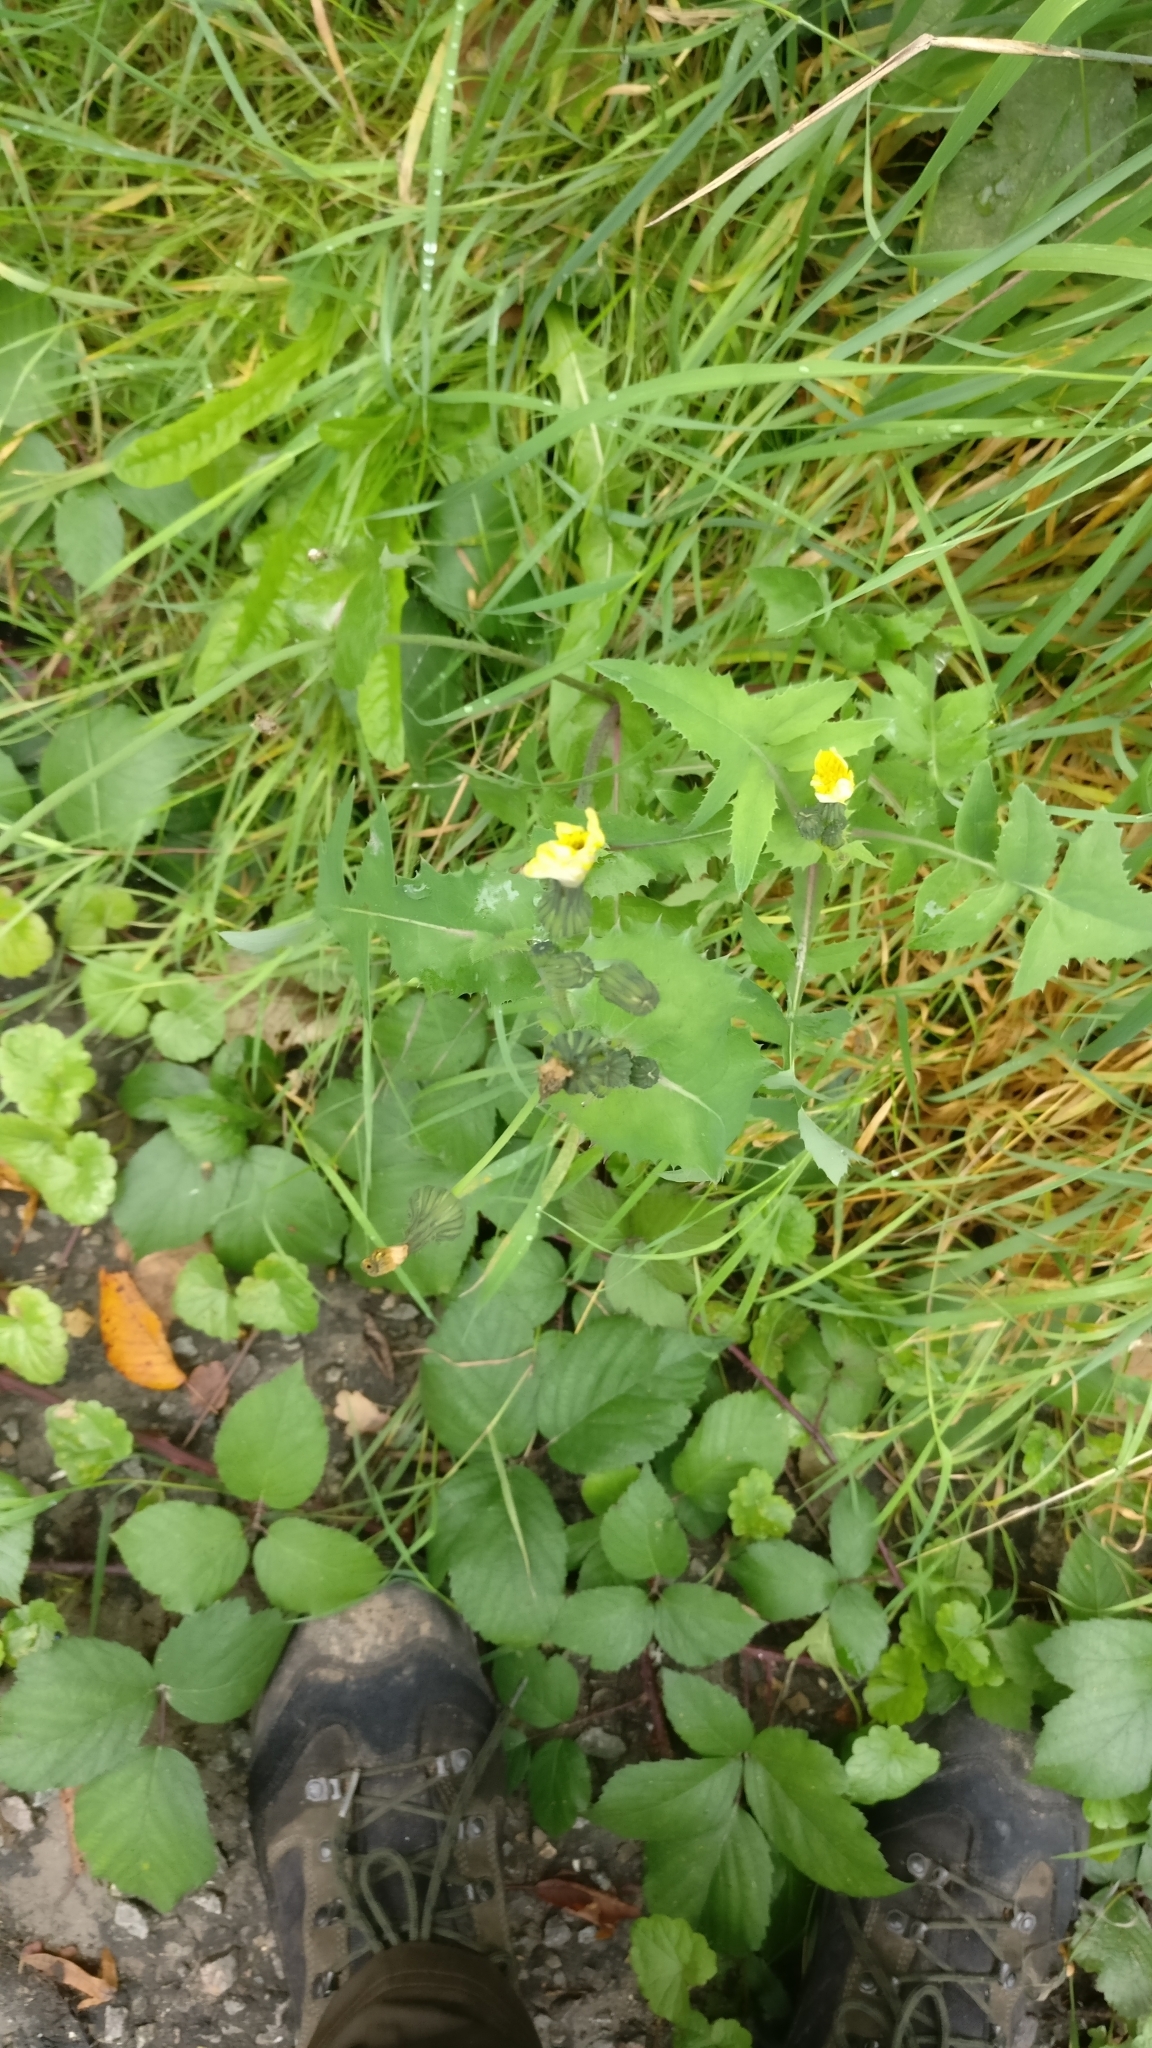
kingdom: Plantae
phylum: Tracheophyta
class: Magnoliopsida
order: Asterales
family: Asteraceae
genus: Sonchus
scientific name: Sonchus oleraceus
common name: Common sowthistle
